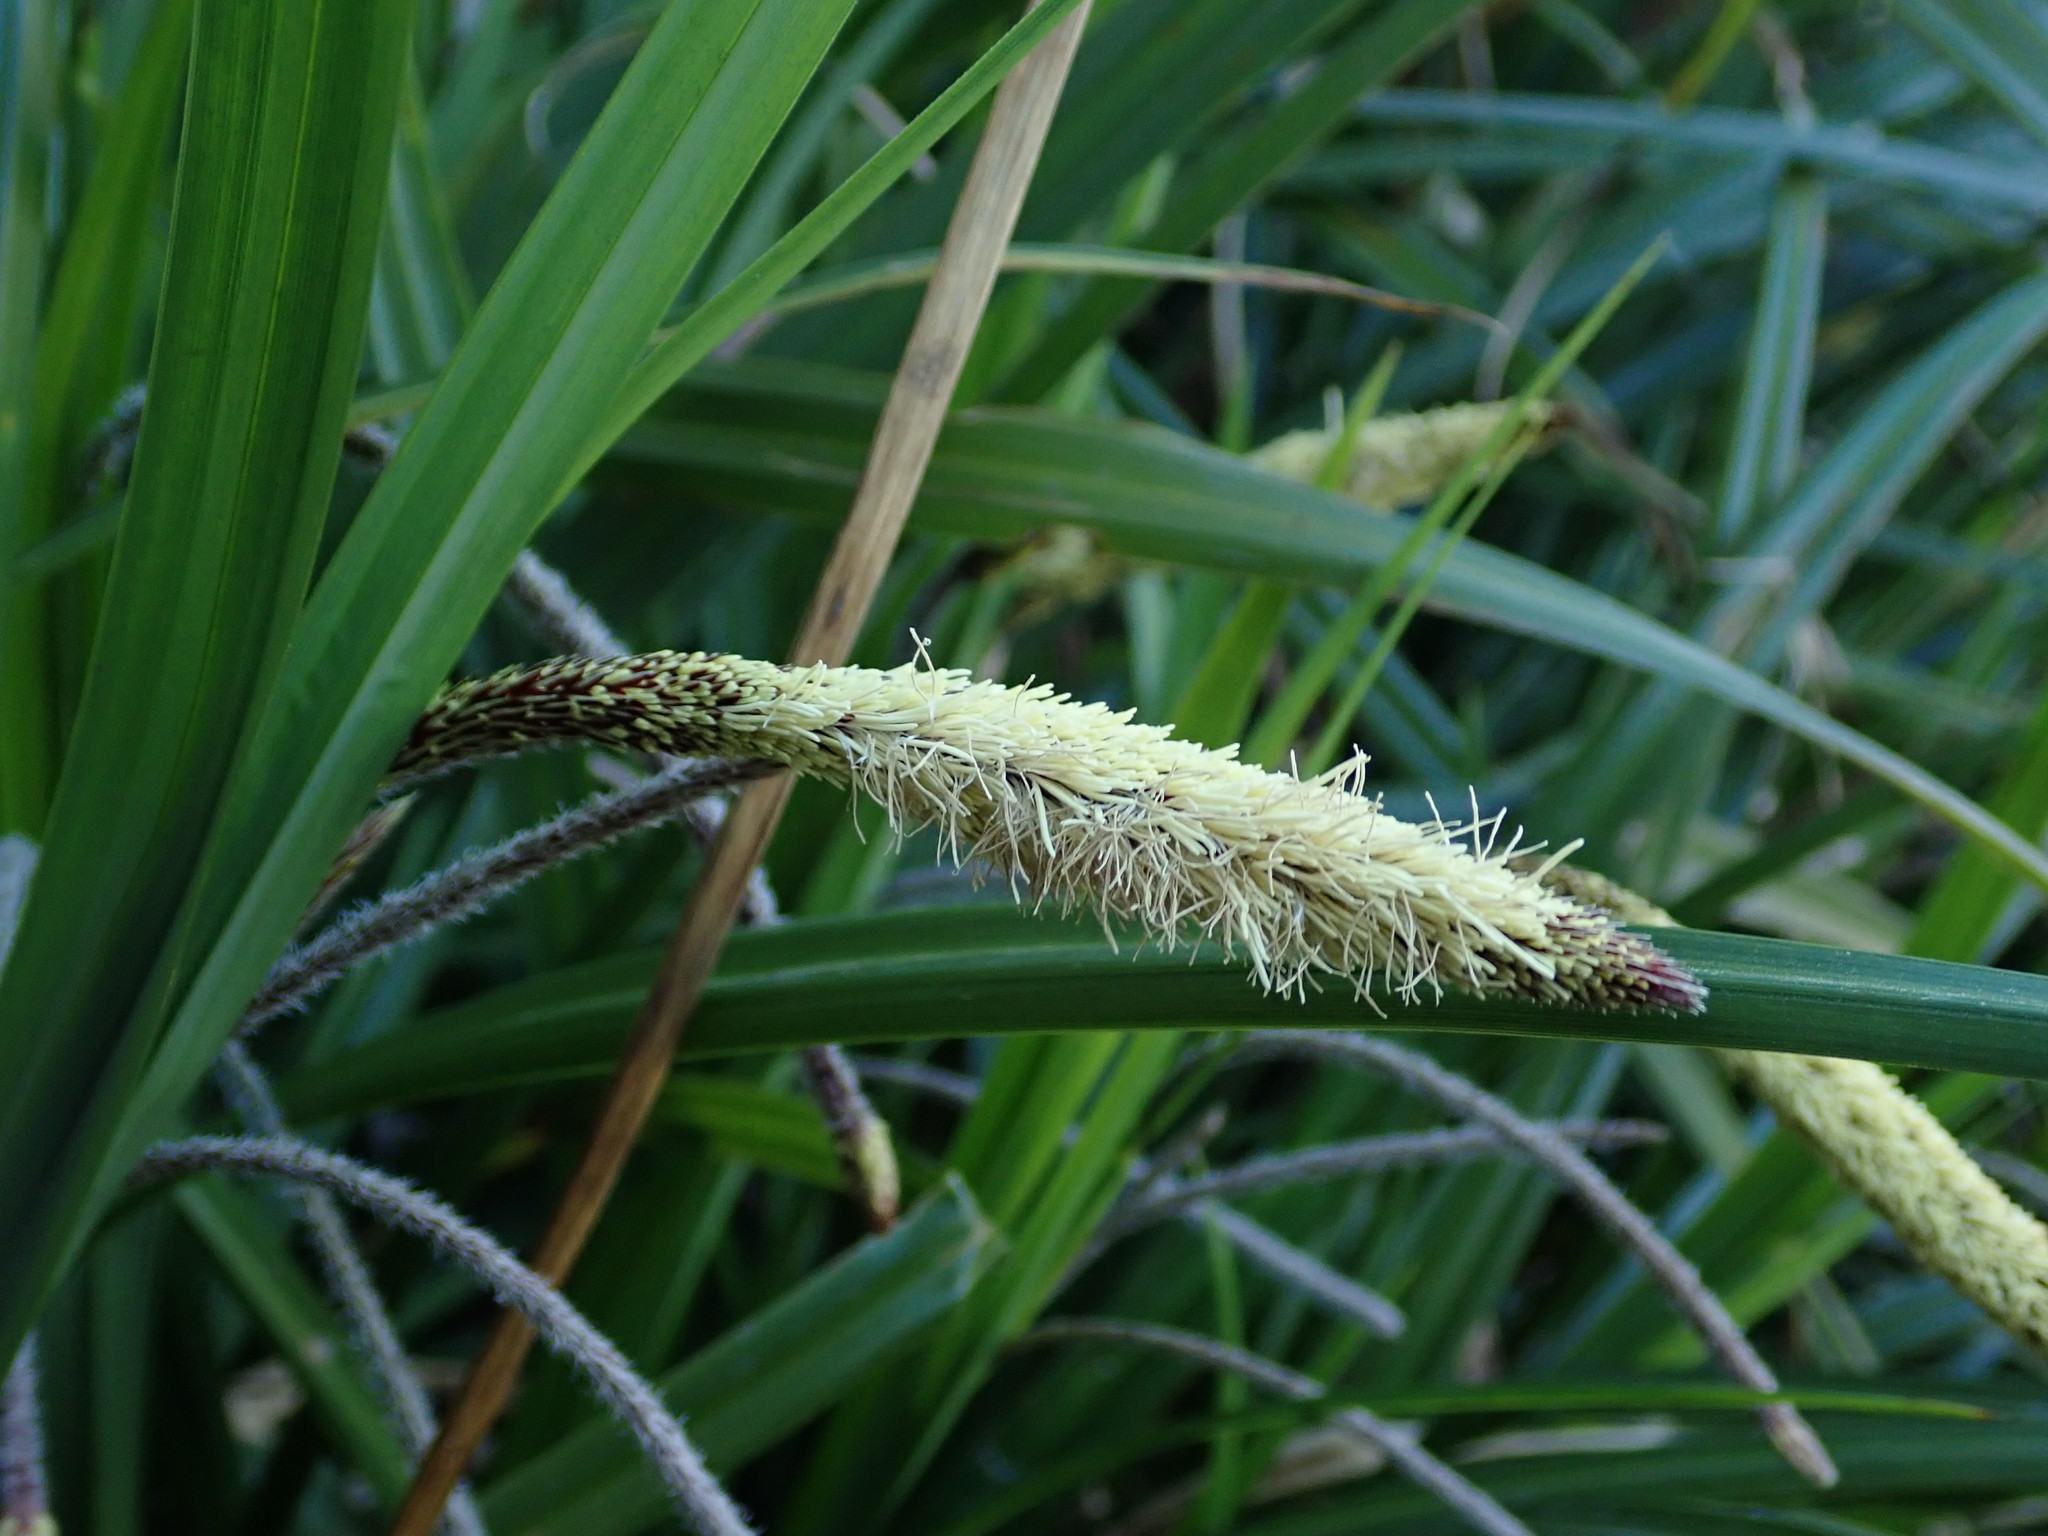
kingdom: Plantae
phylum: Tracheophyta
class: Liliopsida
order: Poales
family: Cyperaceae
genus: Carex
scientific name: Carex pendula
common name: Pendulous sedge
